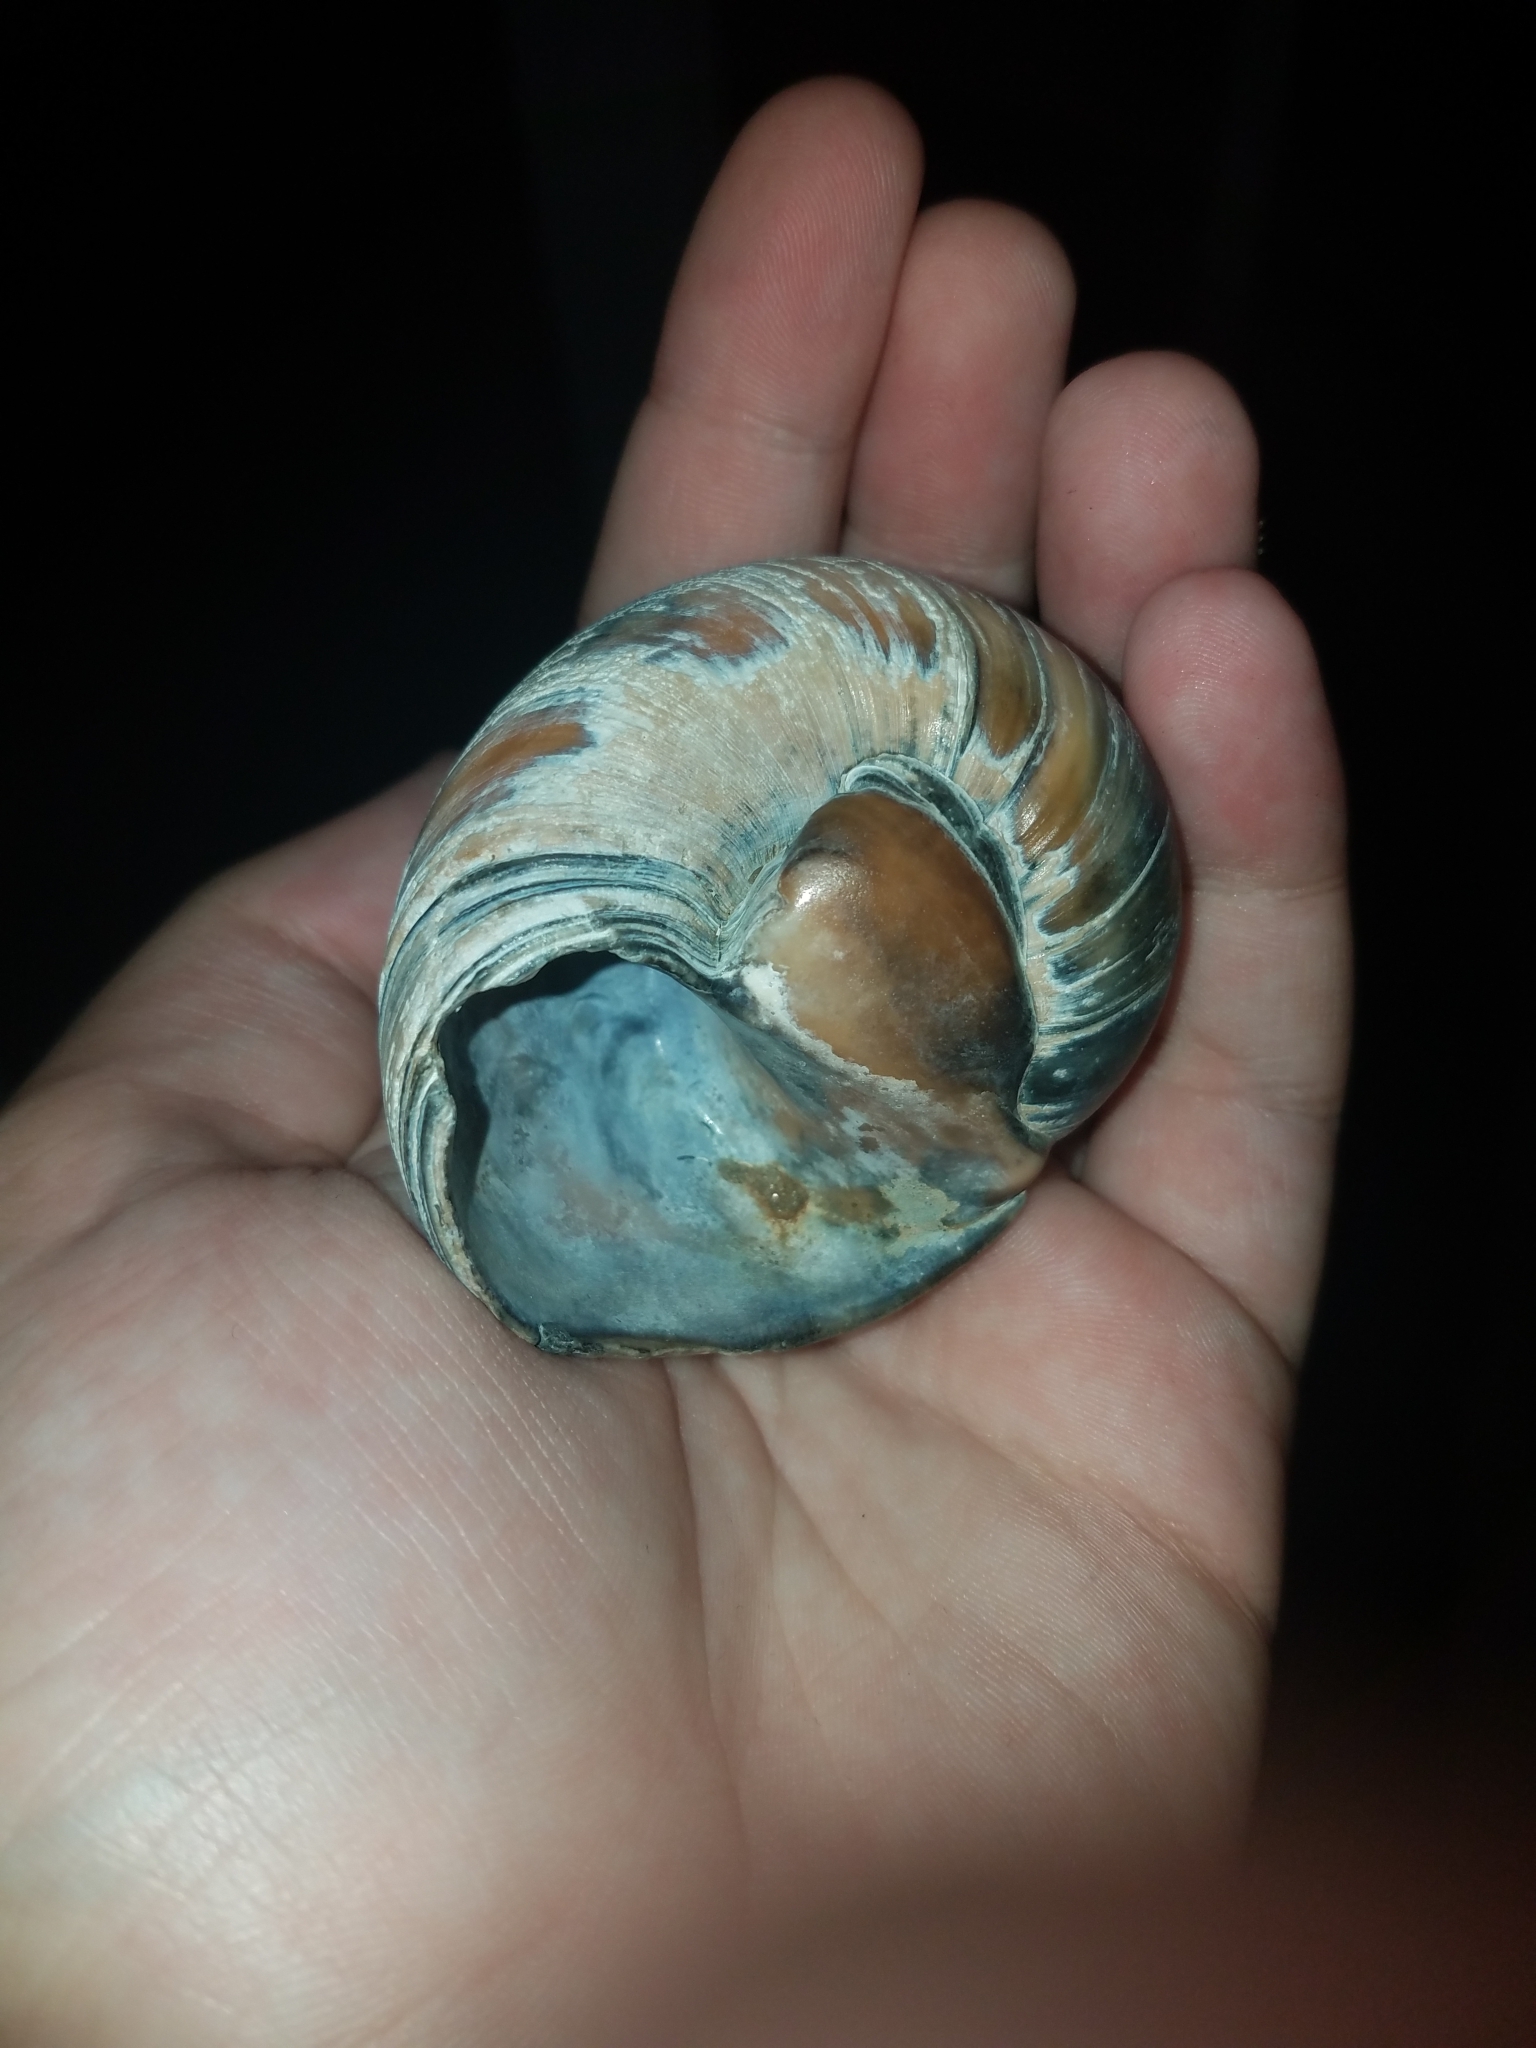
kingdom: Animalia
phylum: Mollusca
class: Gastropoda
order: Littorinimorpha
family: Naticidae
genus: Neverita
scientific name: Neverita duplicata
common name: Lobed moonsnail
